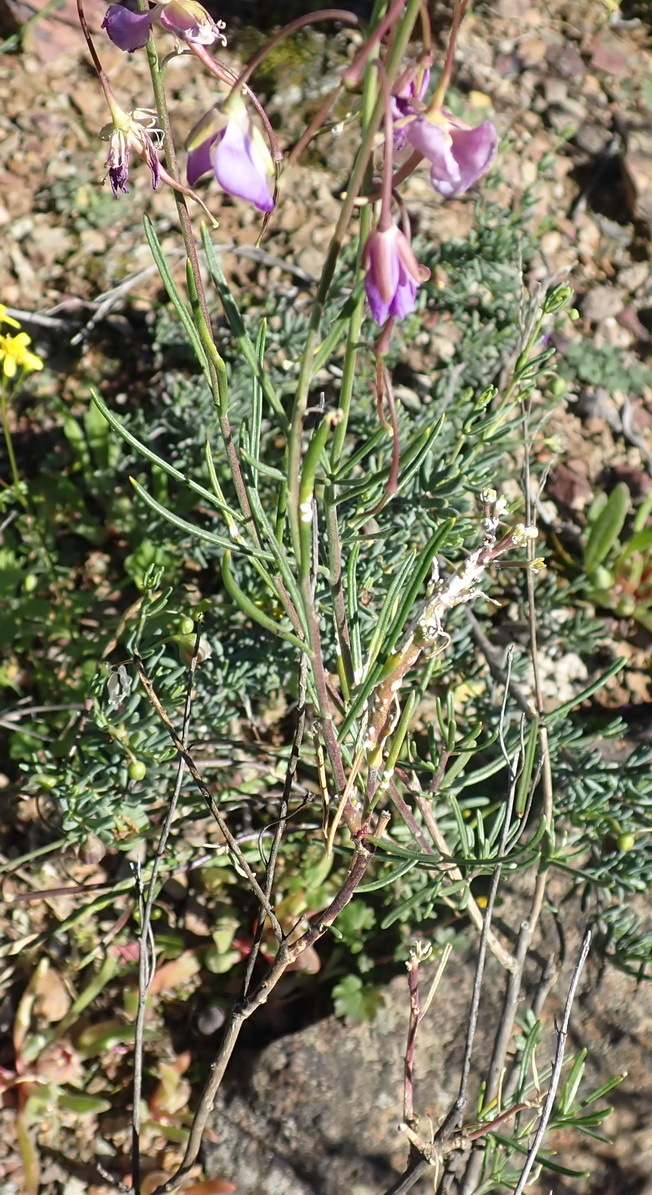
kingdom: Plantae
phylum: Tracheophyta
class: Magnoliopsida
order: Brassicales
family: Brassicaceae
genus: Heliophila
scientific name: Heliophila suavissima
